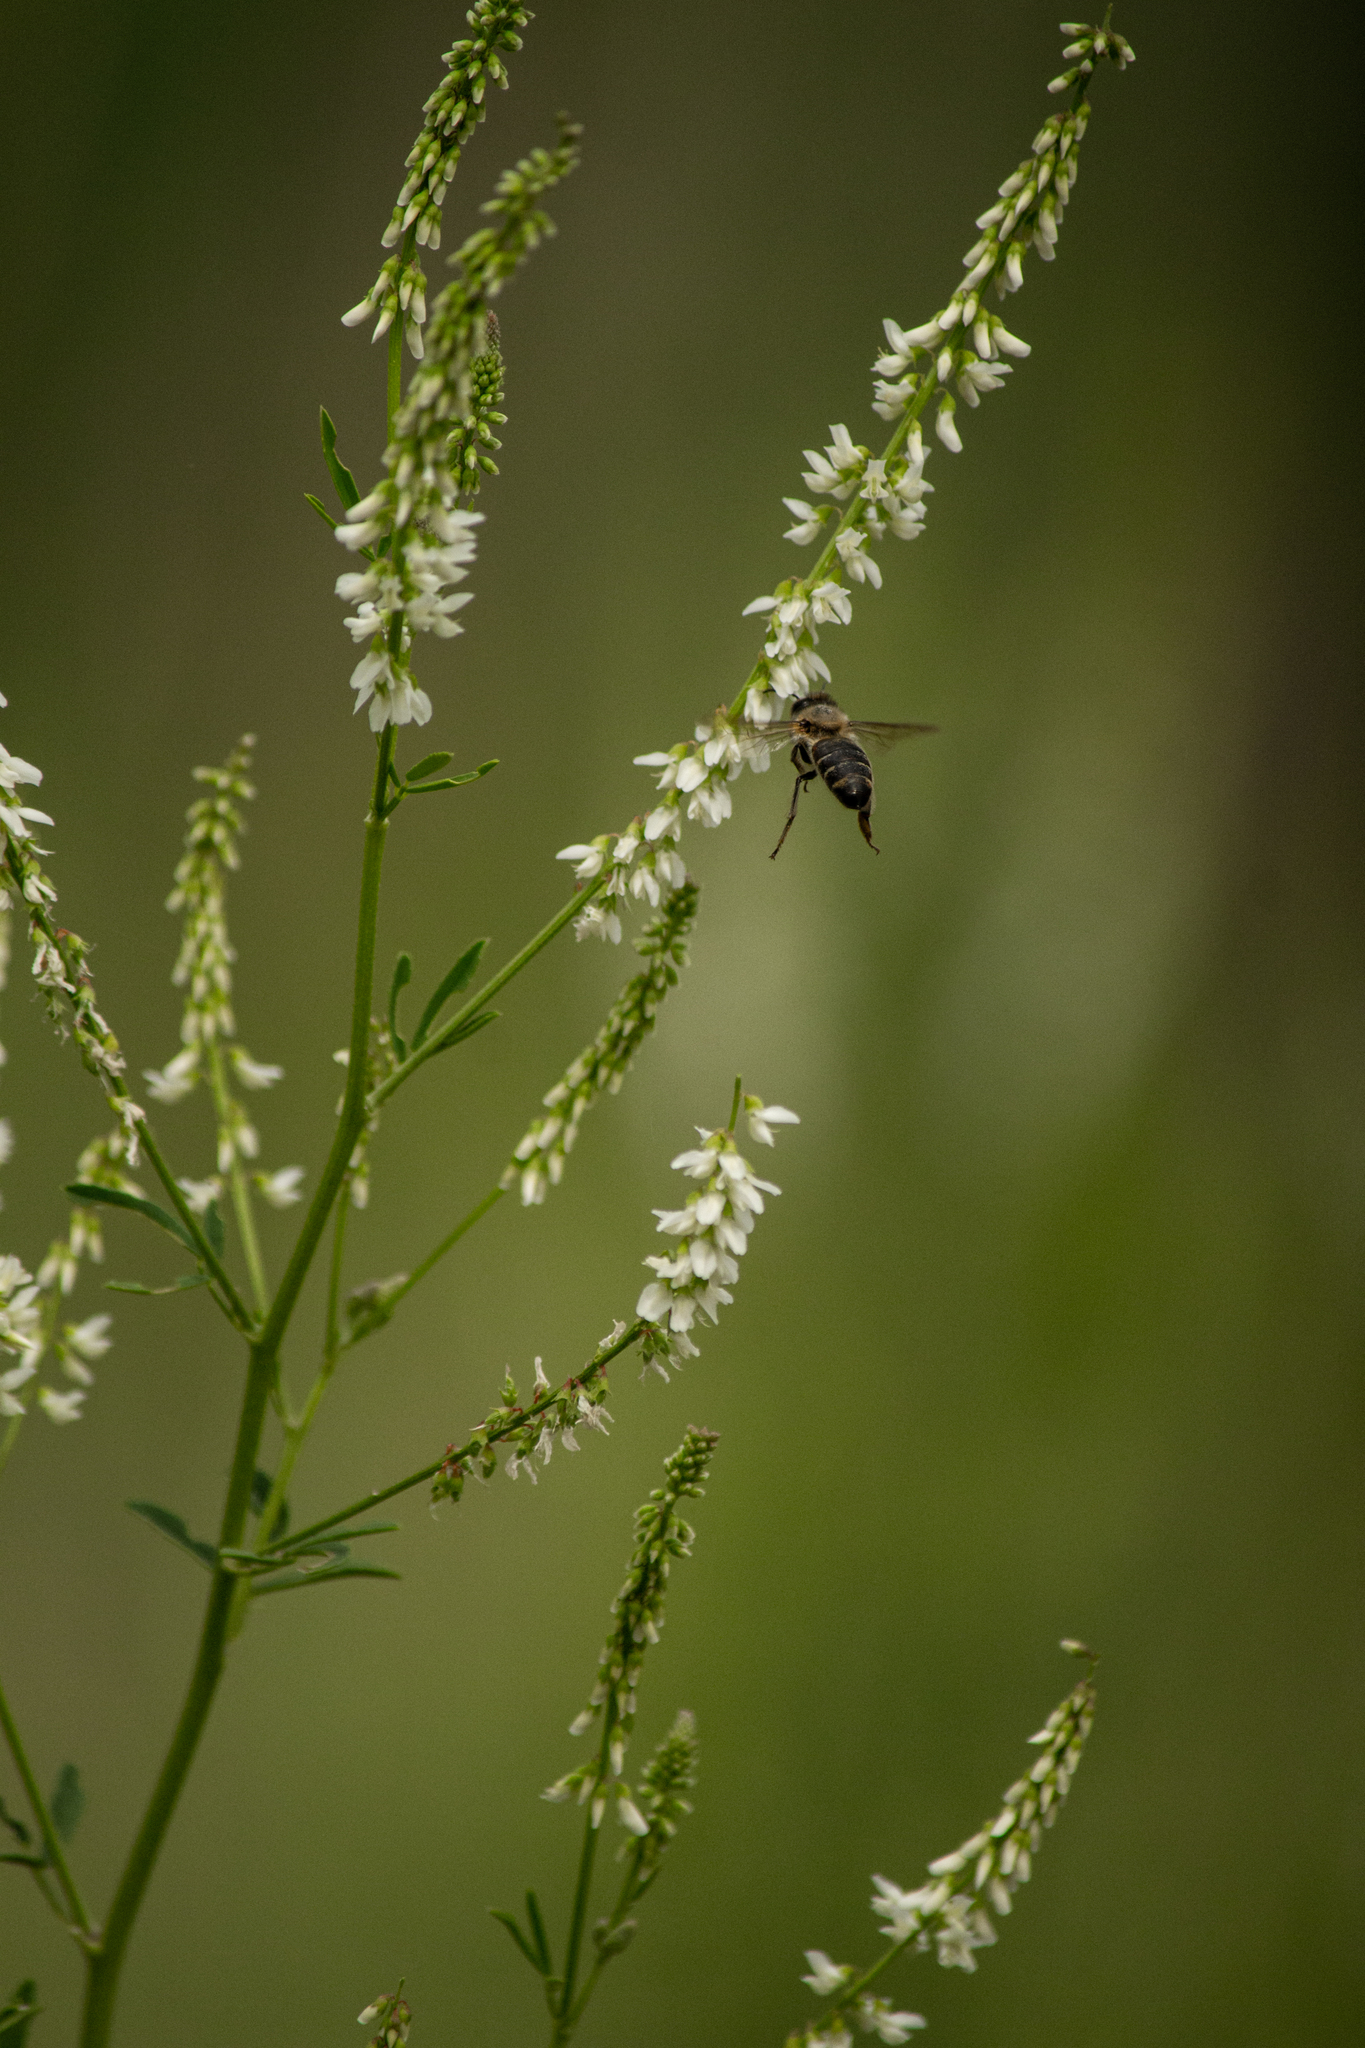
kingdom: Animalia
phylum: Arthropoda
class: Insecta
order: Hymenoptera
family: Apidae
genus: Apis
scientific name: Apis mellifera
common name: Honey bee
